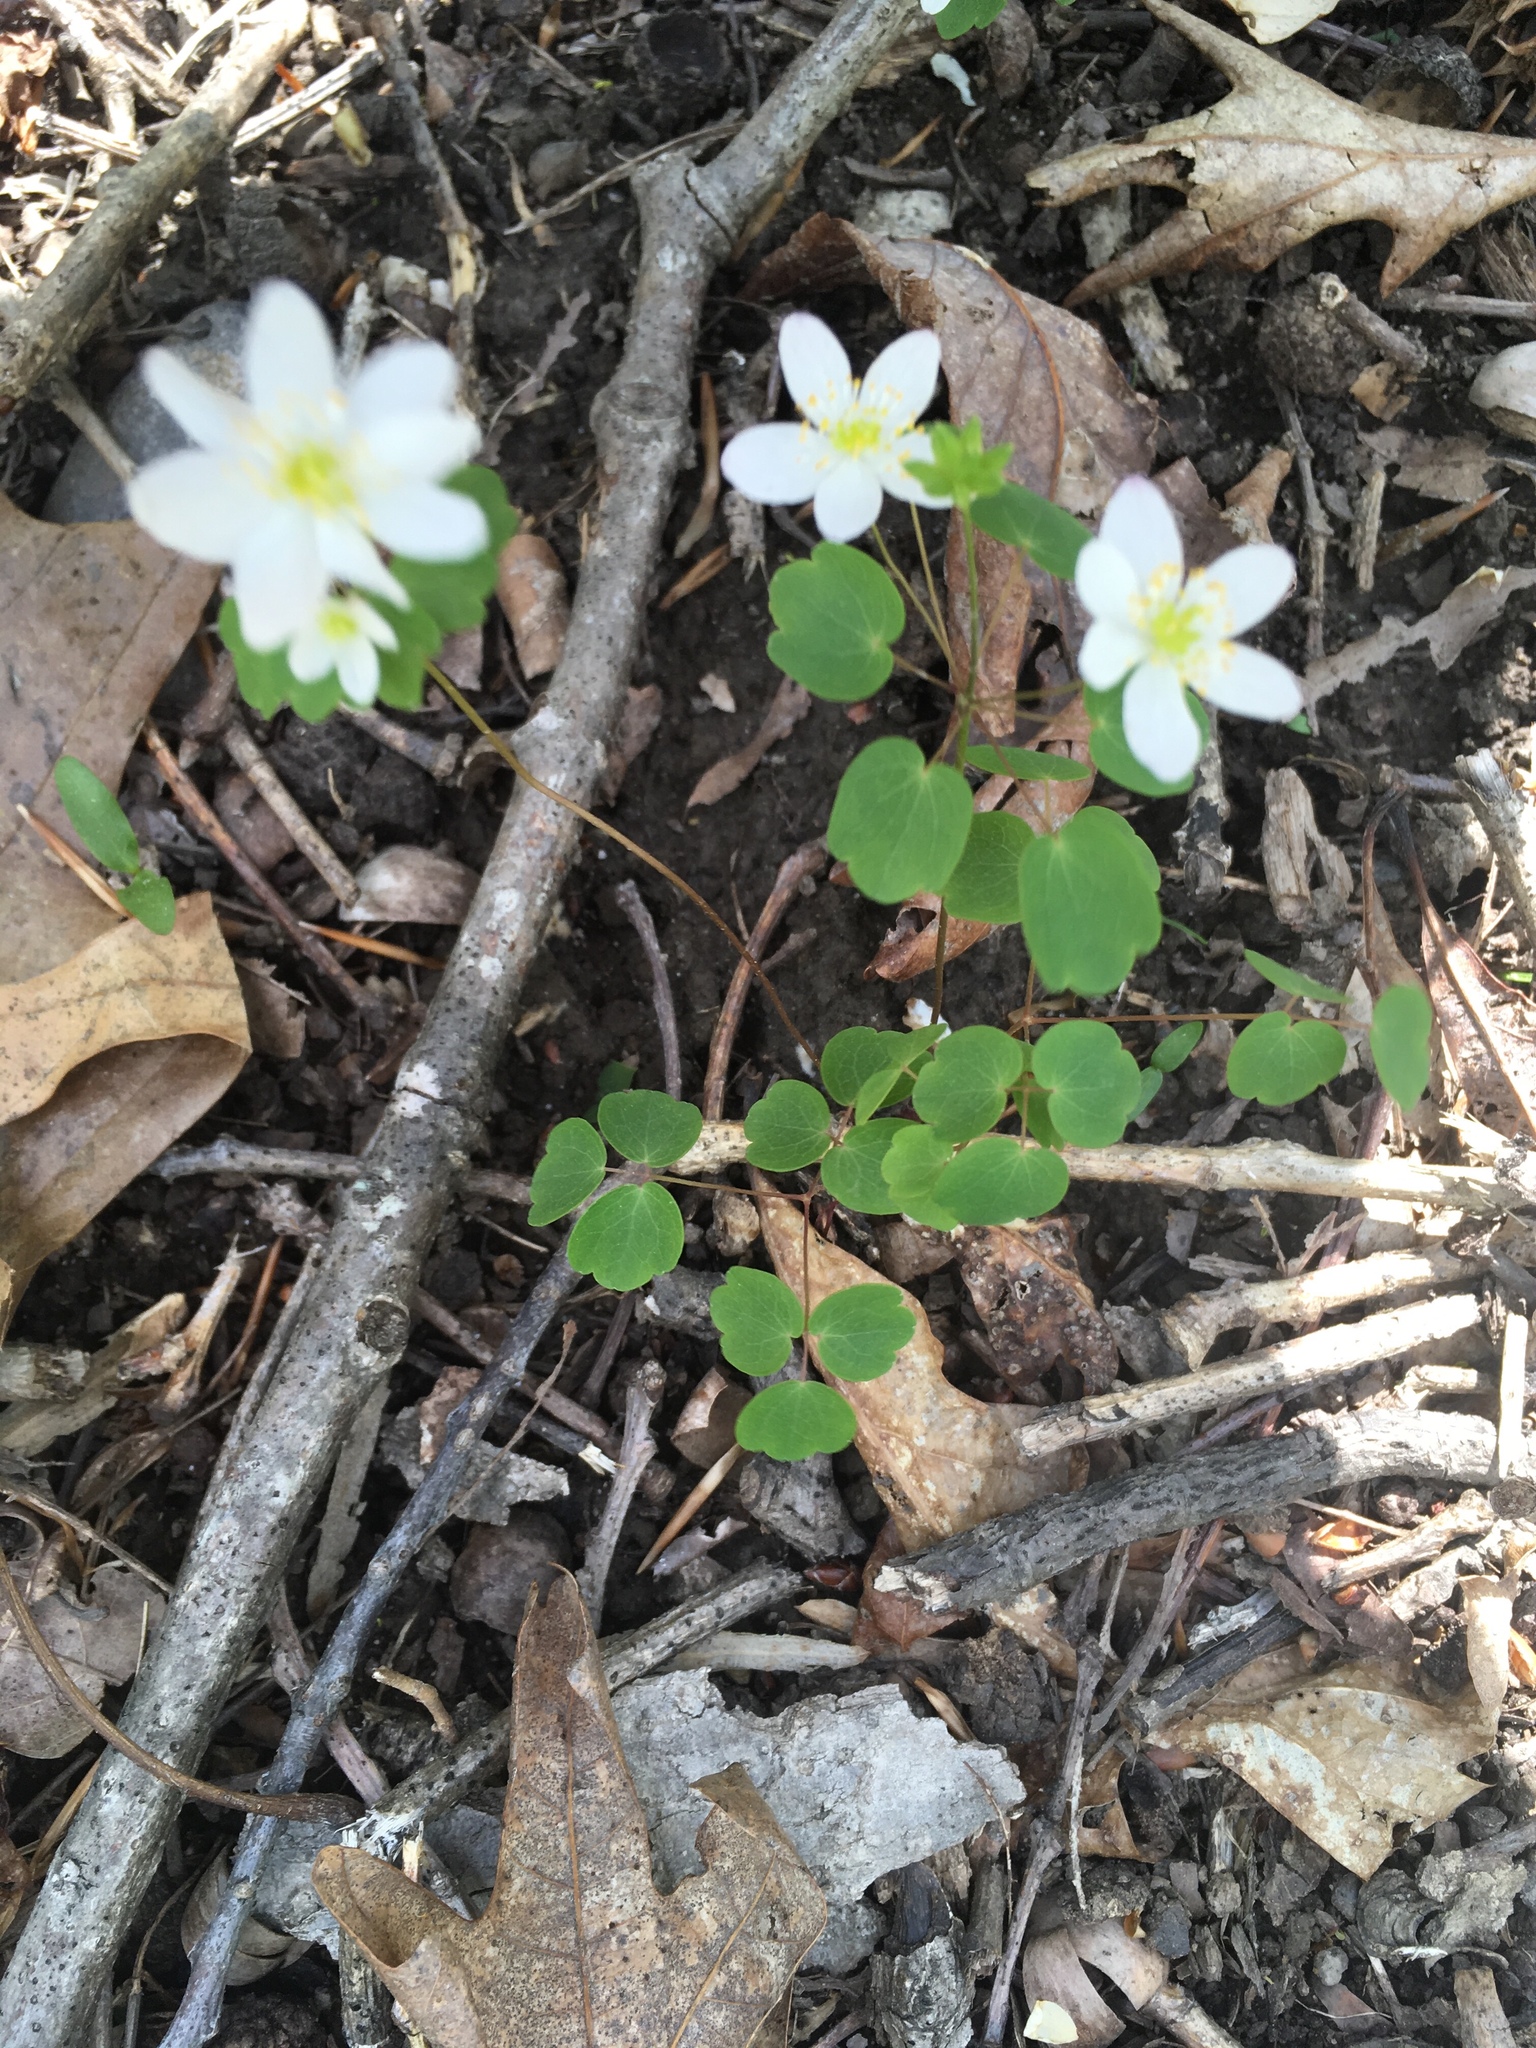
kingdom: Plantae
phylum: Tracheophyta
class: Magnoliopsida
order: Ranunculales
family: Ranunculaceae
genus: Thalictrum
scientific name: Thalictrum thalictroides
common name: Rue-anemone
